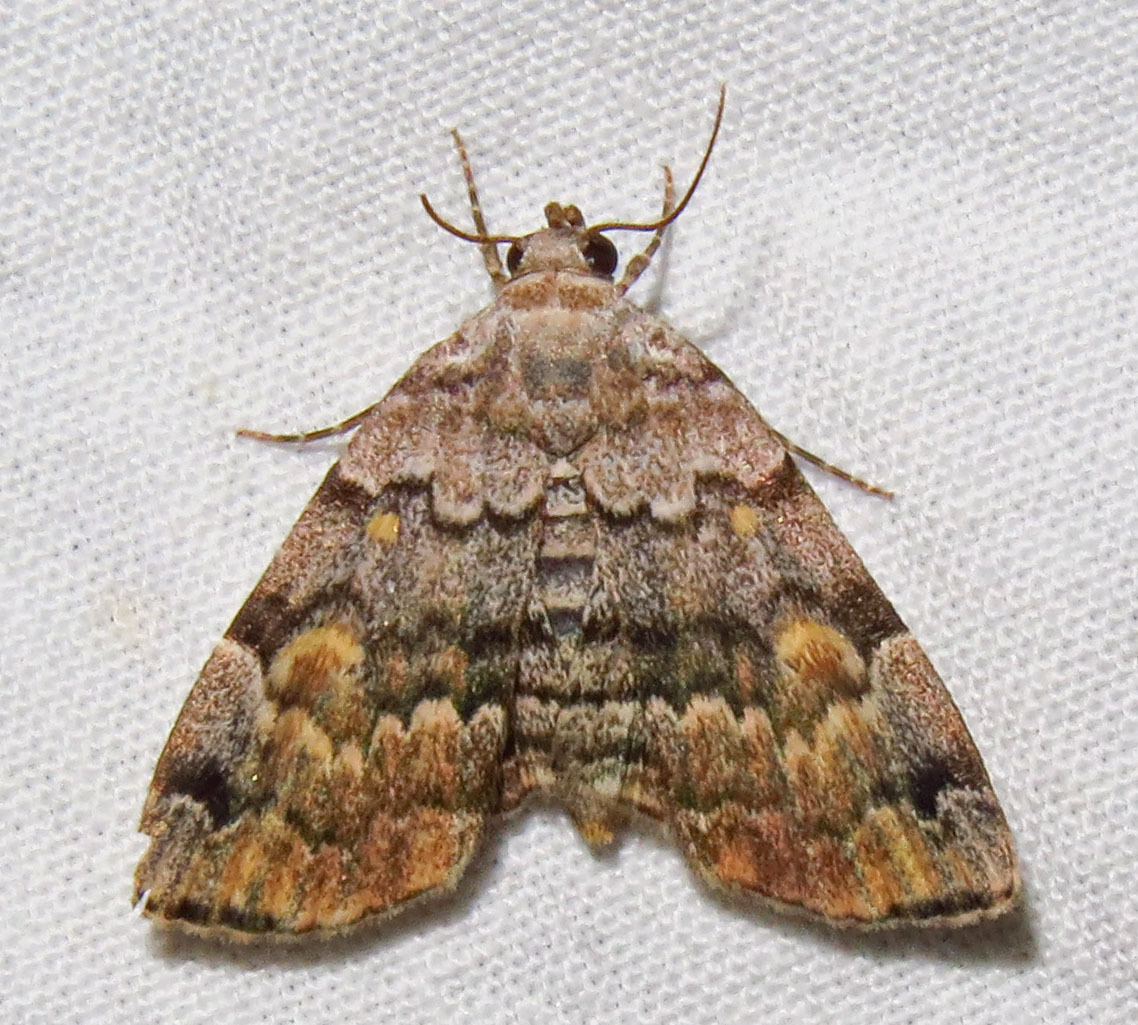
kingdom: Animalia
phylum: Arthropoda
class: Insecta
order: Lepidoptera
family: Erebidae
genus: Idia
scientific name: Idia americalis
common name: American idia moth
